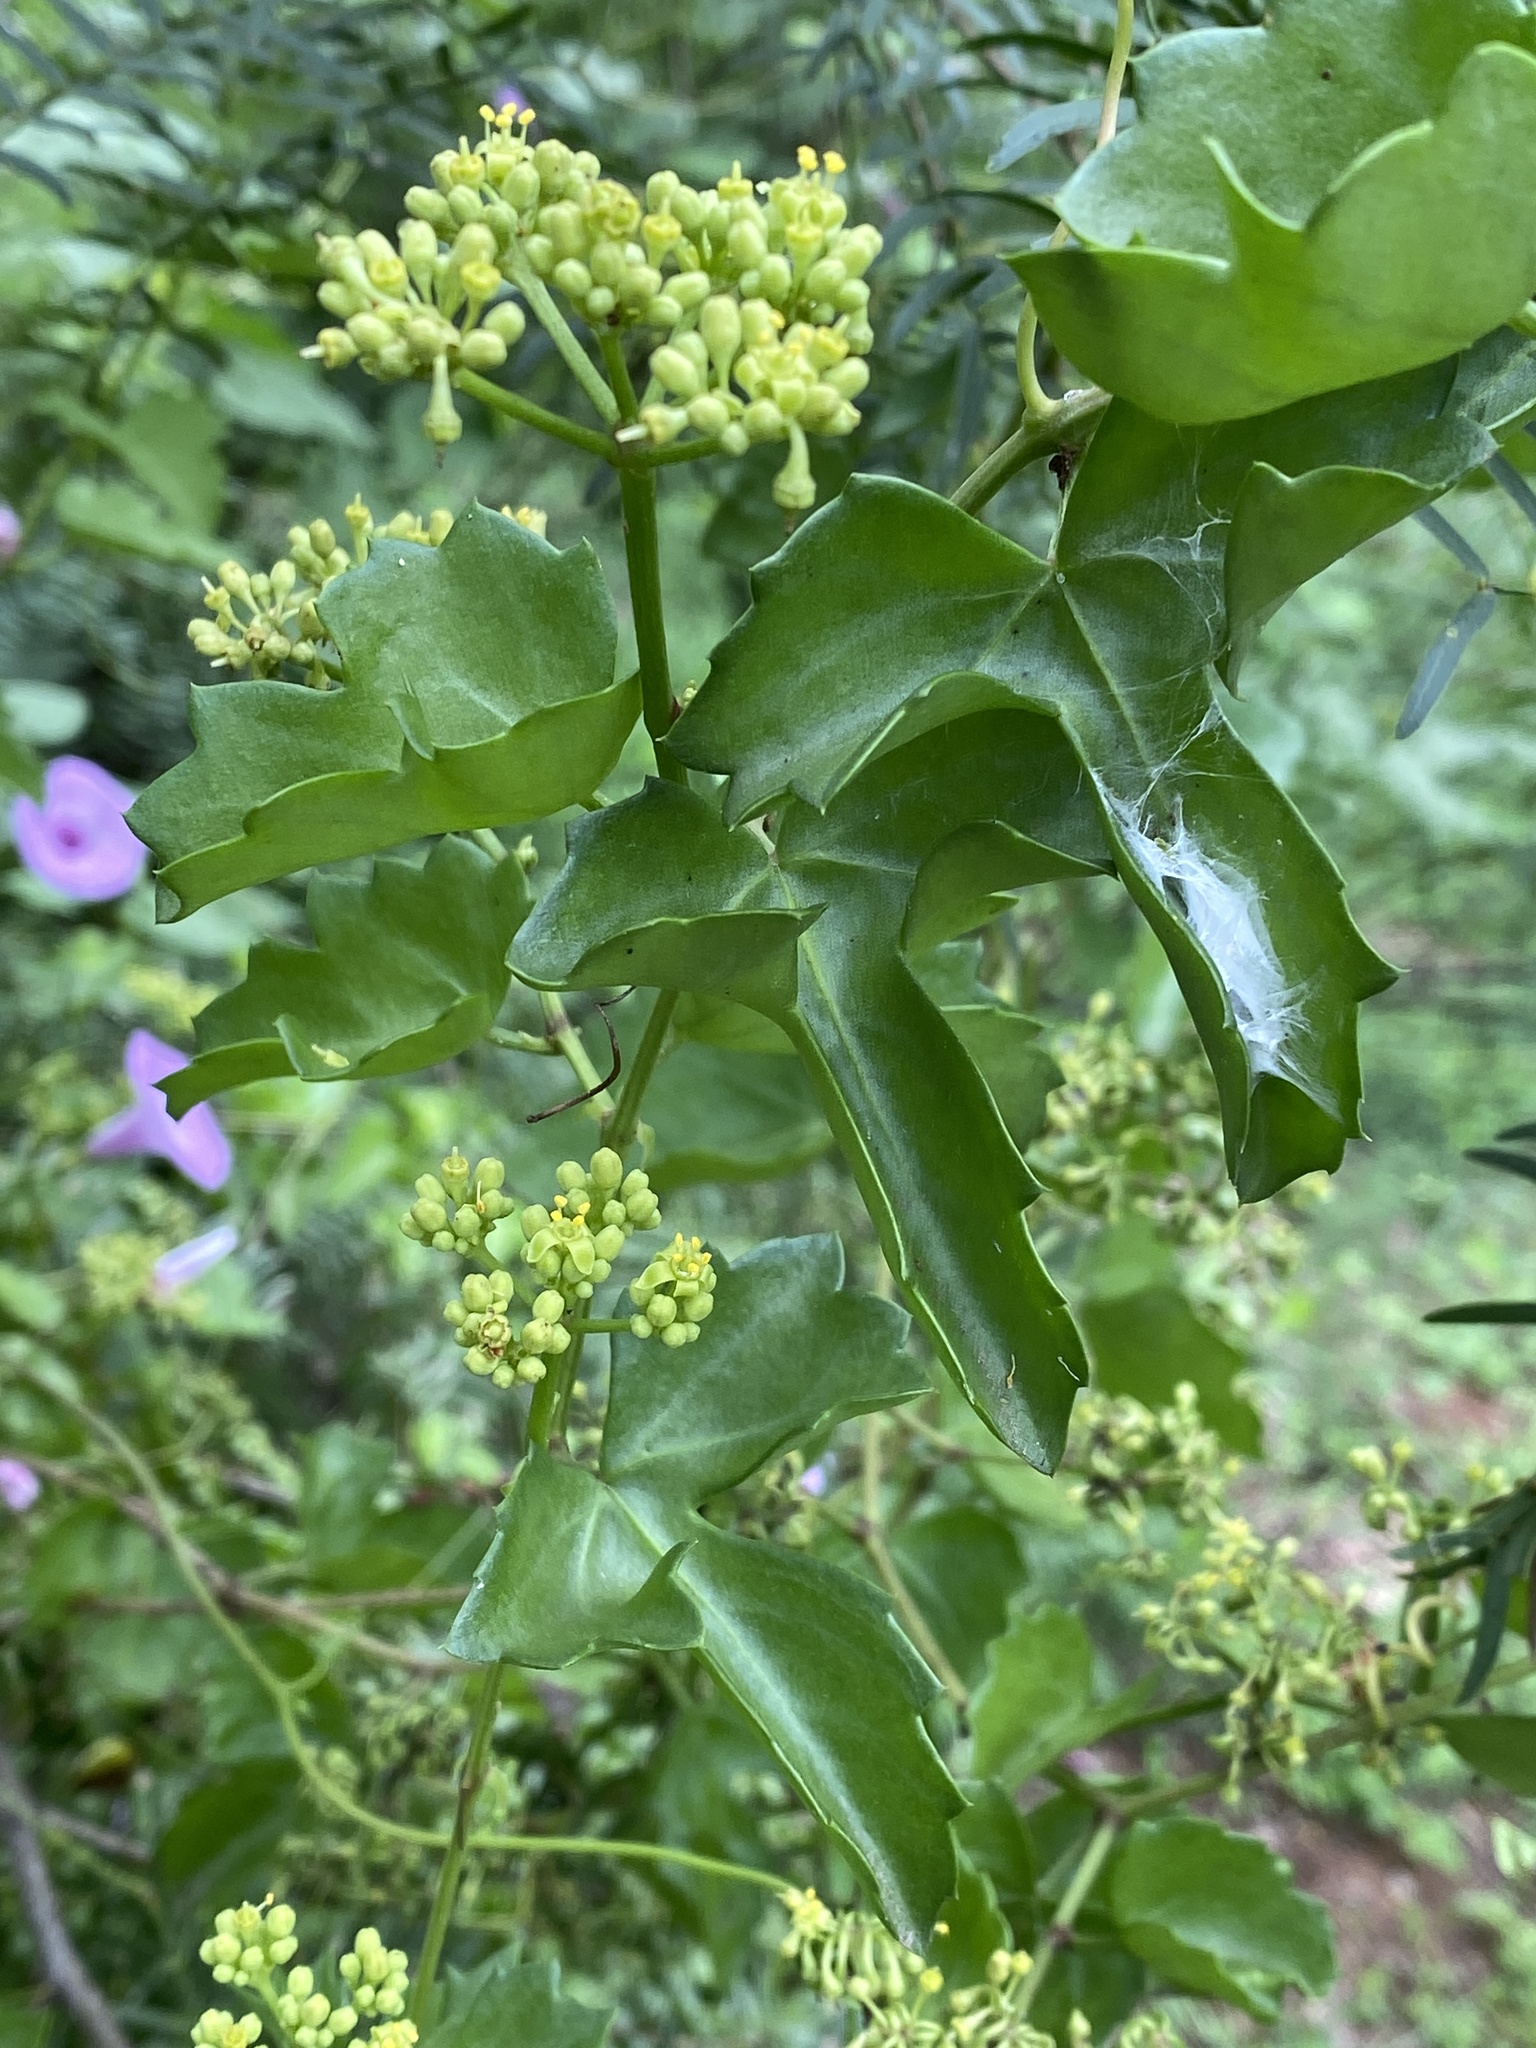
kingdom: Plantae
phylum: Tracheophyta
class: Magnoliopsida
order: Vitales
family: Vitaceae
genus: Cissus
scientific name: Cissus trifoliata
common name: Vine-sorrel
